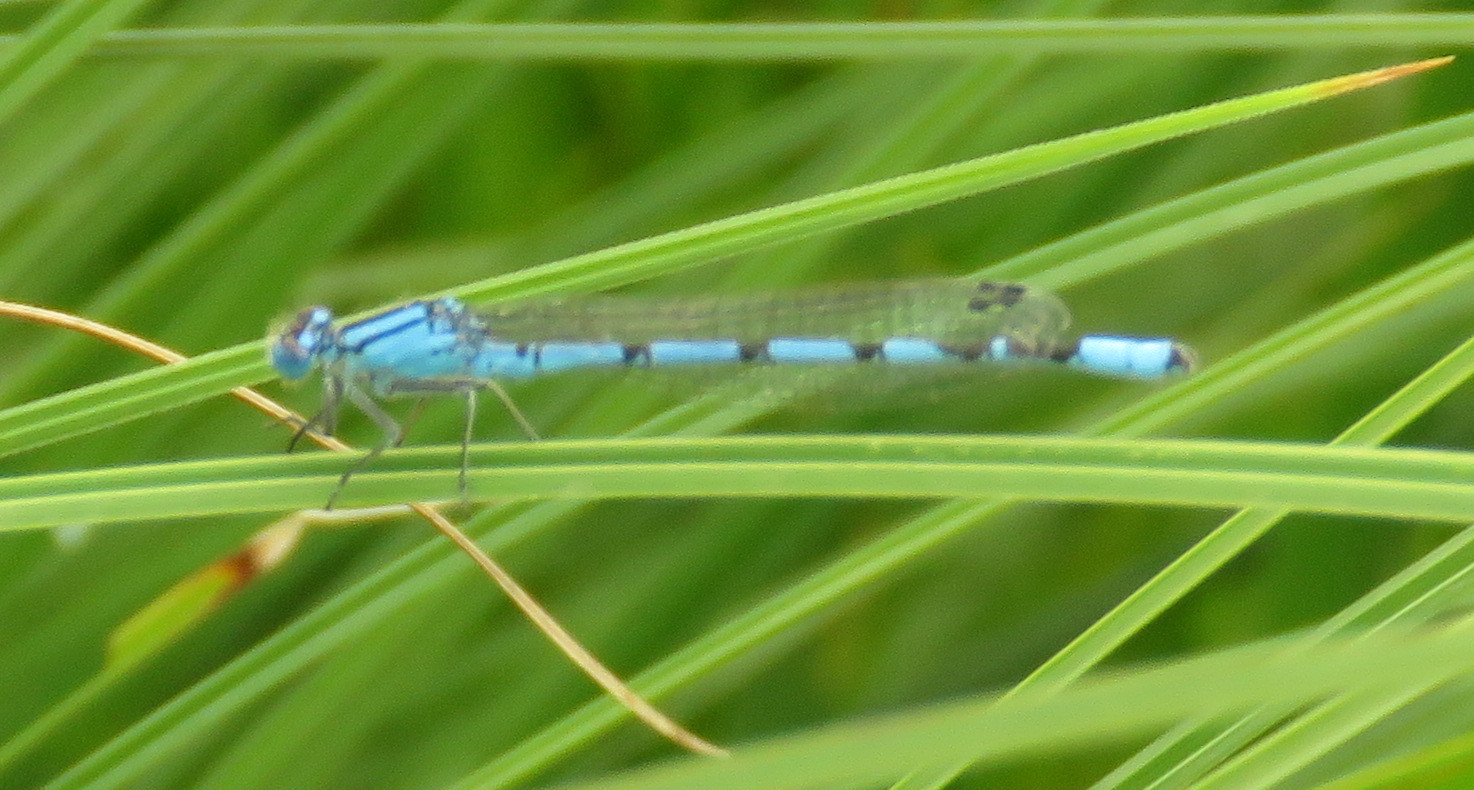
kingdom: Animalia
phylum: Arthropoda
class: Insecta
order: Odonata
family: Coenagrionidae
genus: Enallagma
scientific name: Enallagma cyathigerum
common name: Common blue damselfly
